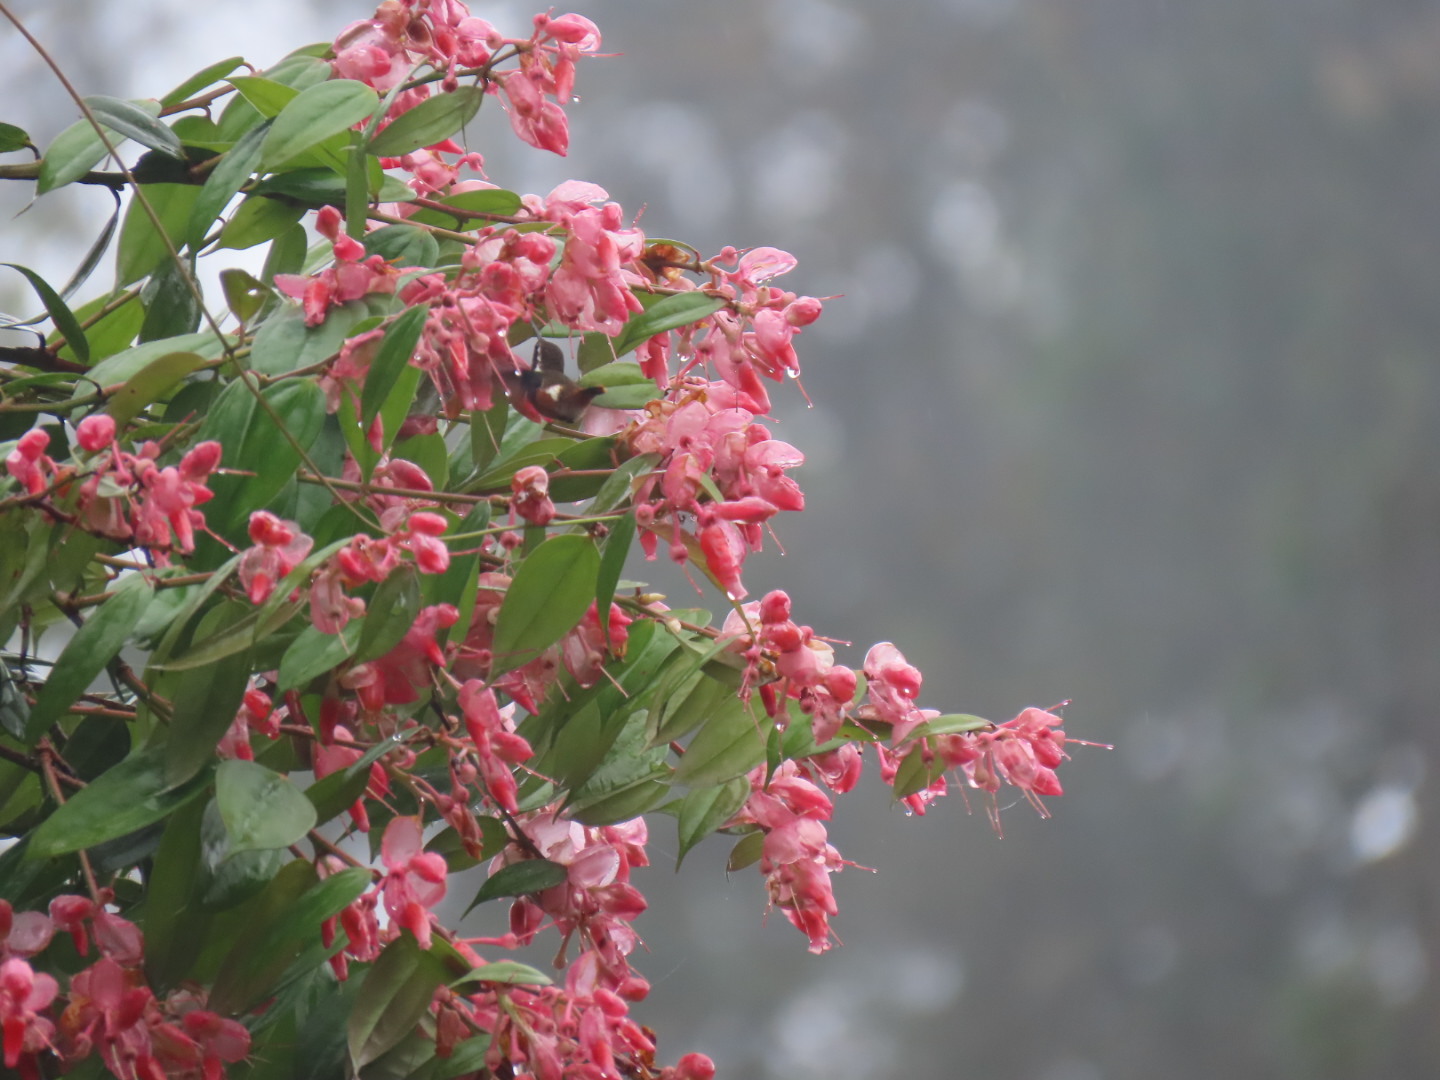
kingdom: Animalia
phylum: Chordata
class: Aves
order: Apodiformes
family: Trochilidae
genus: Chaetocercus
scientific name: Chaetocercus mulsant
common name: White-bellied woodstar
